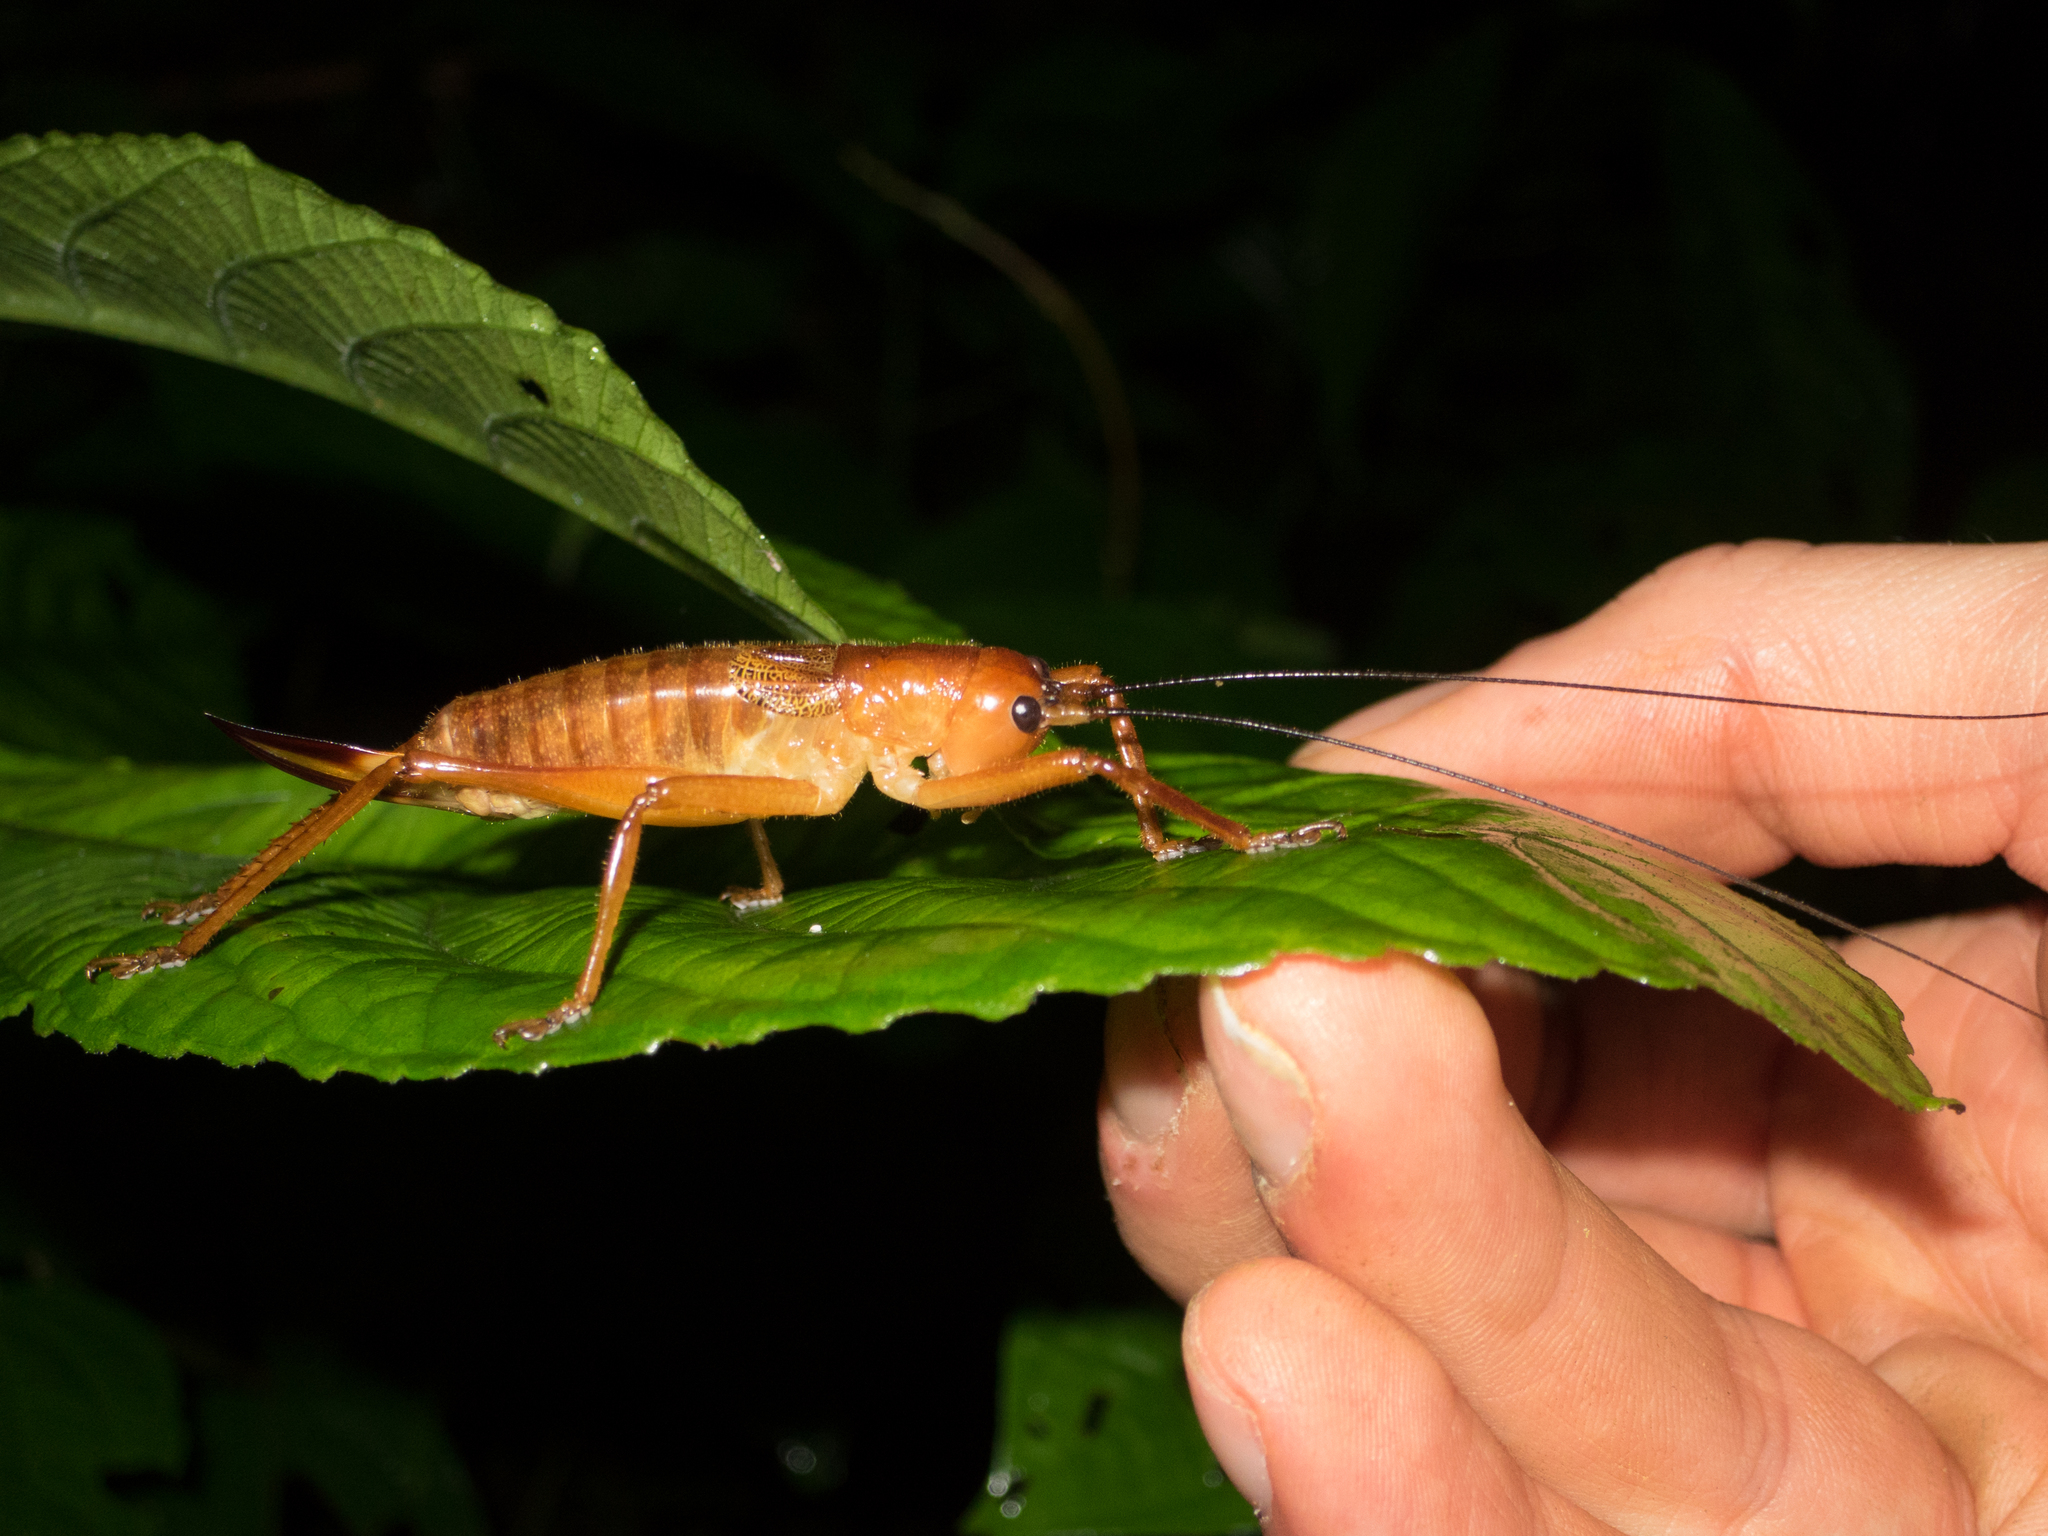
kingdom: Animalia
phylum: Arthropoda
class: Insecta
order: Orthoptera
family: Tettigoniidae
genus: Melanonotus
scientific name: Melanonotus powellorum
